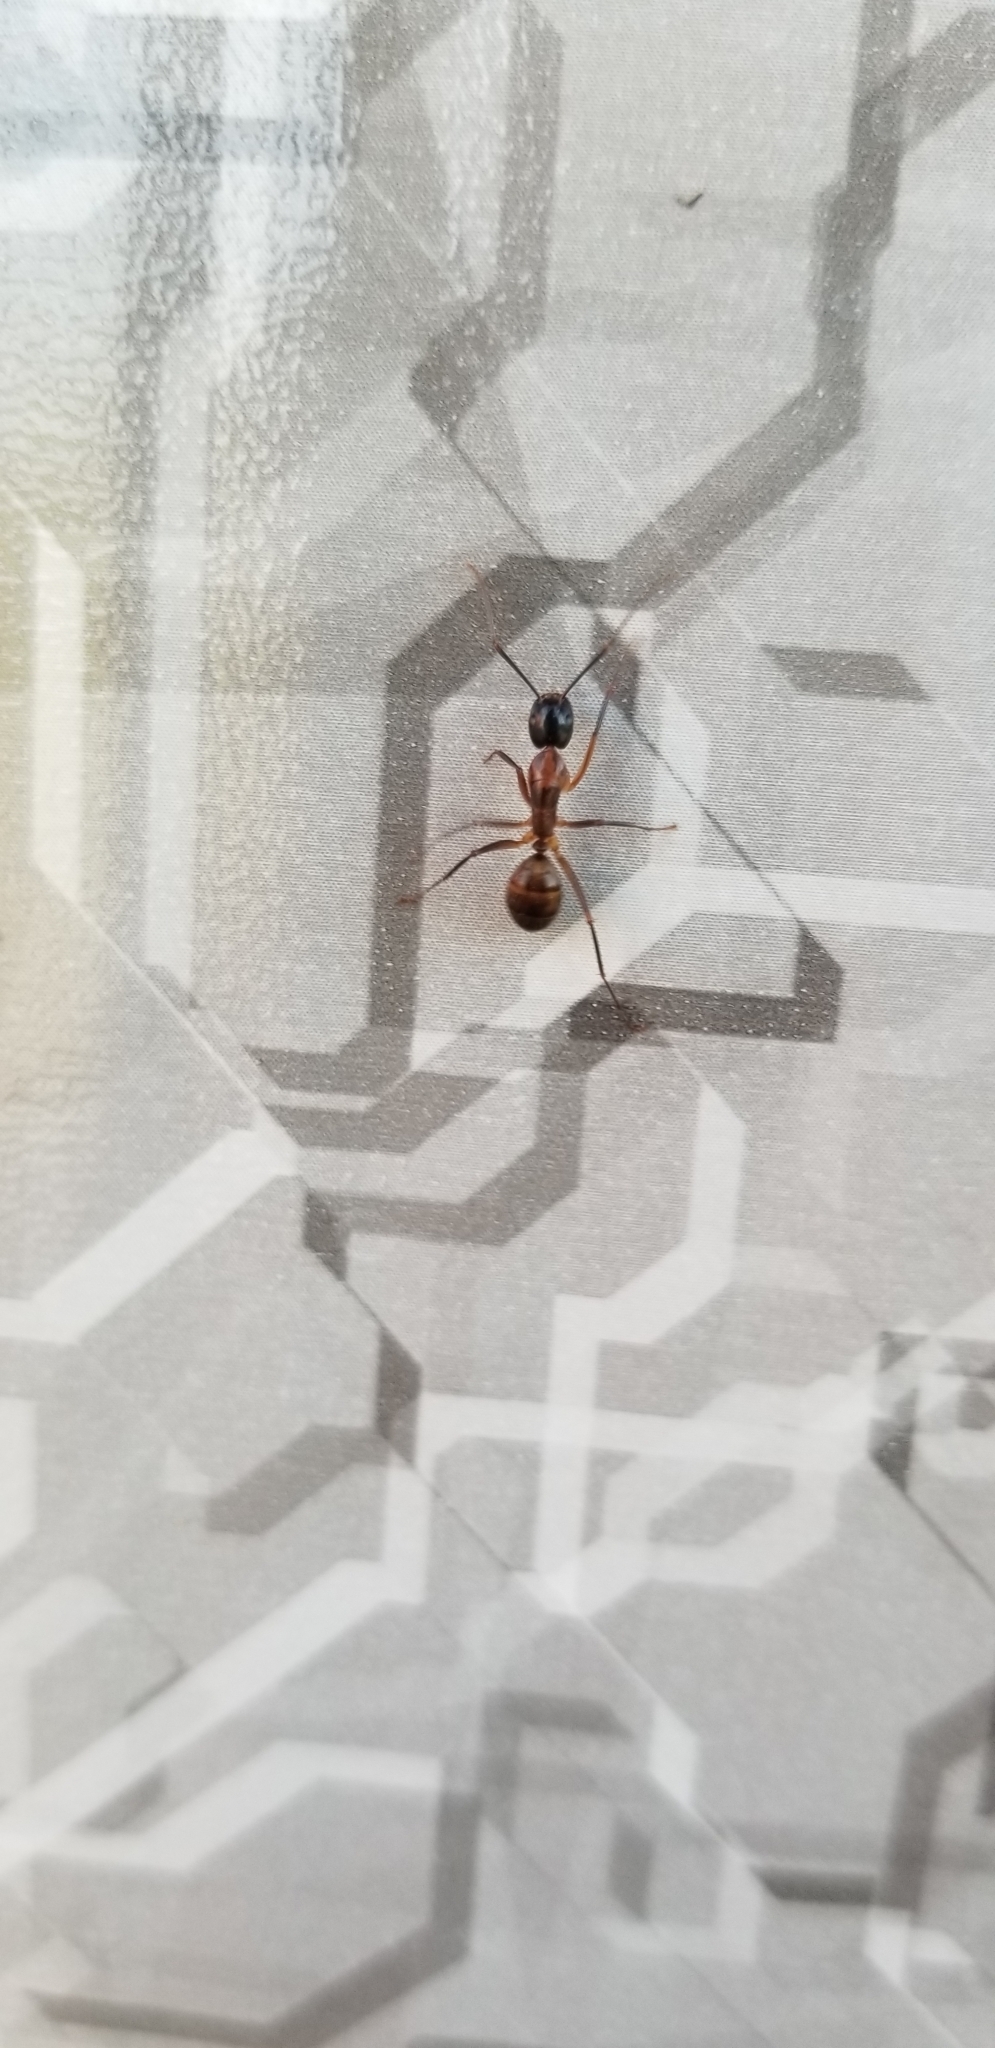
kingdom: Animalia
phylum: Arthropoda
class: Insecta
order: Hymenoptera
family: Formicidae
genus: Camponotus
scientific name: Camponotus americanus
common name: American carpenter ant
